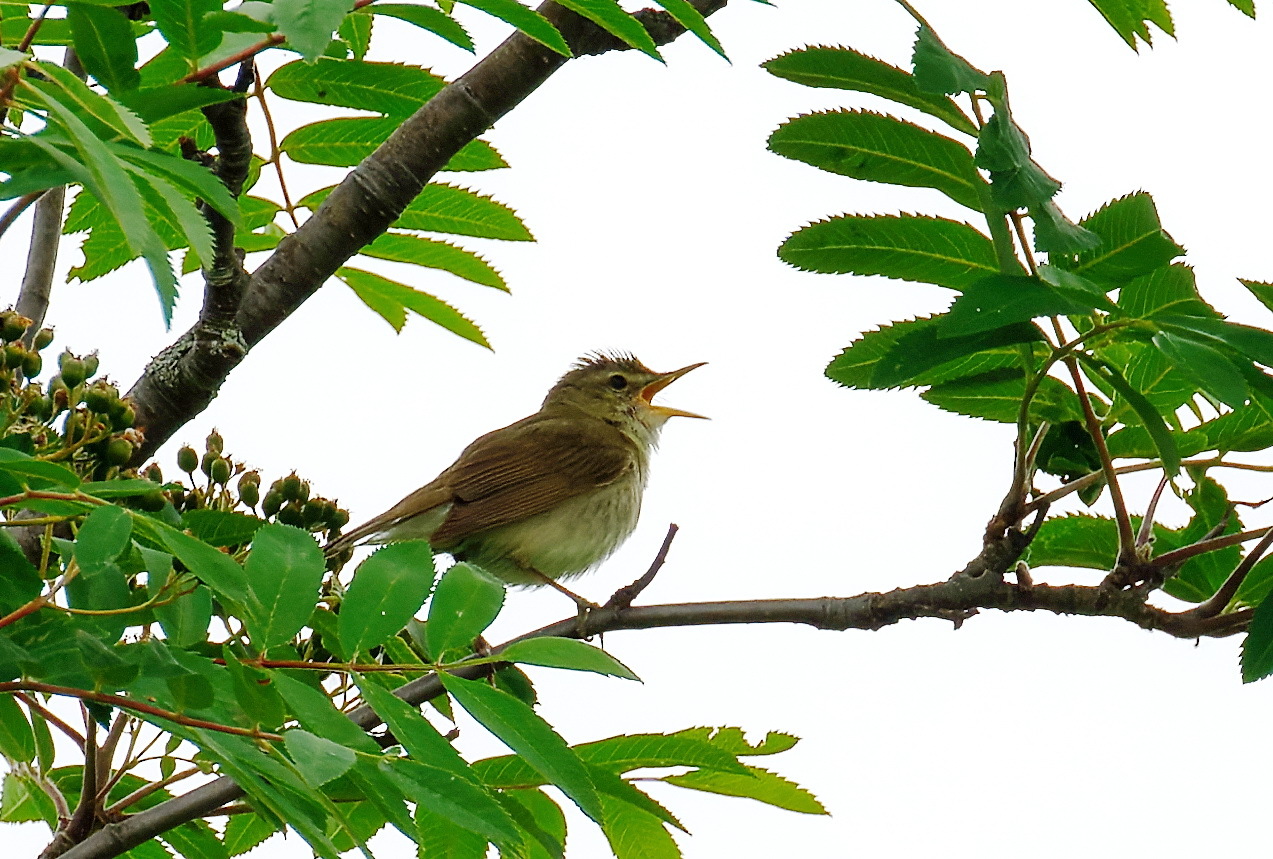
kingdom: Animalia
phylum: Chordata
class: Aves
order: Passeriformes
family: Acrocephalidae
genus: Acrocephalus
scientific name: Acrocephalus dumetorum
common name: Blyth's reed warbler
